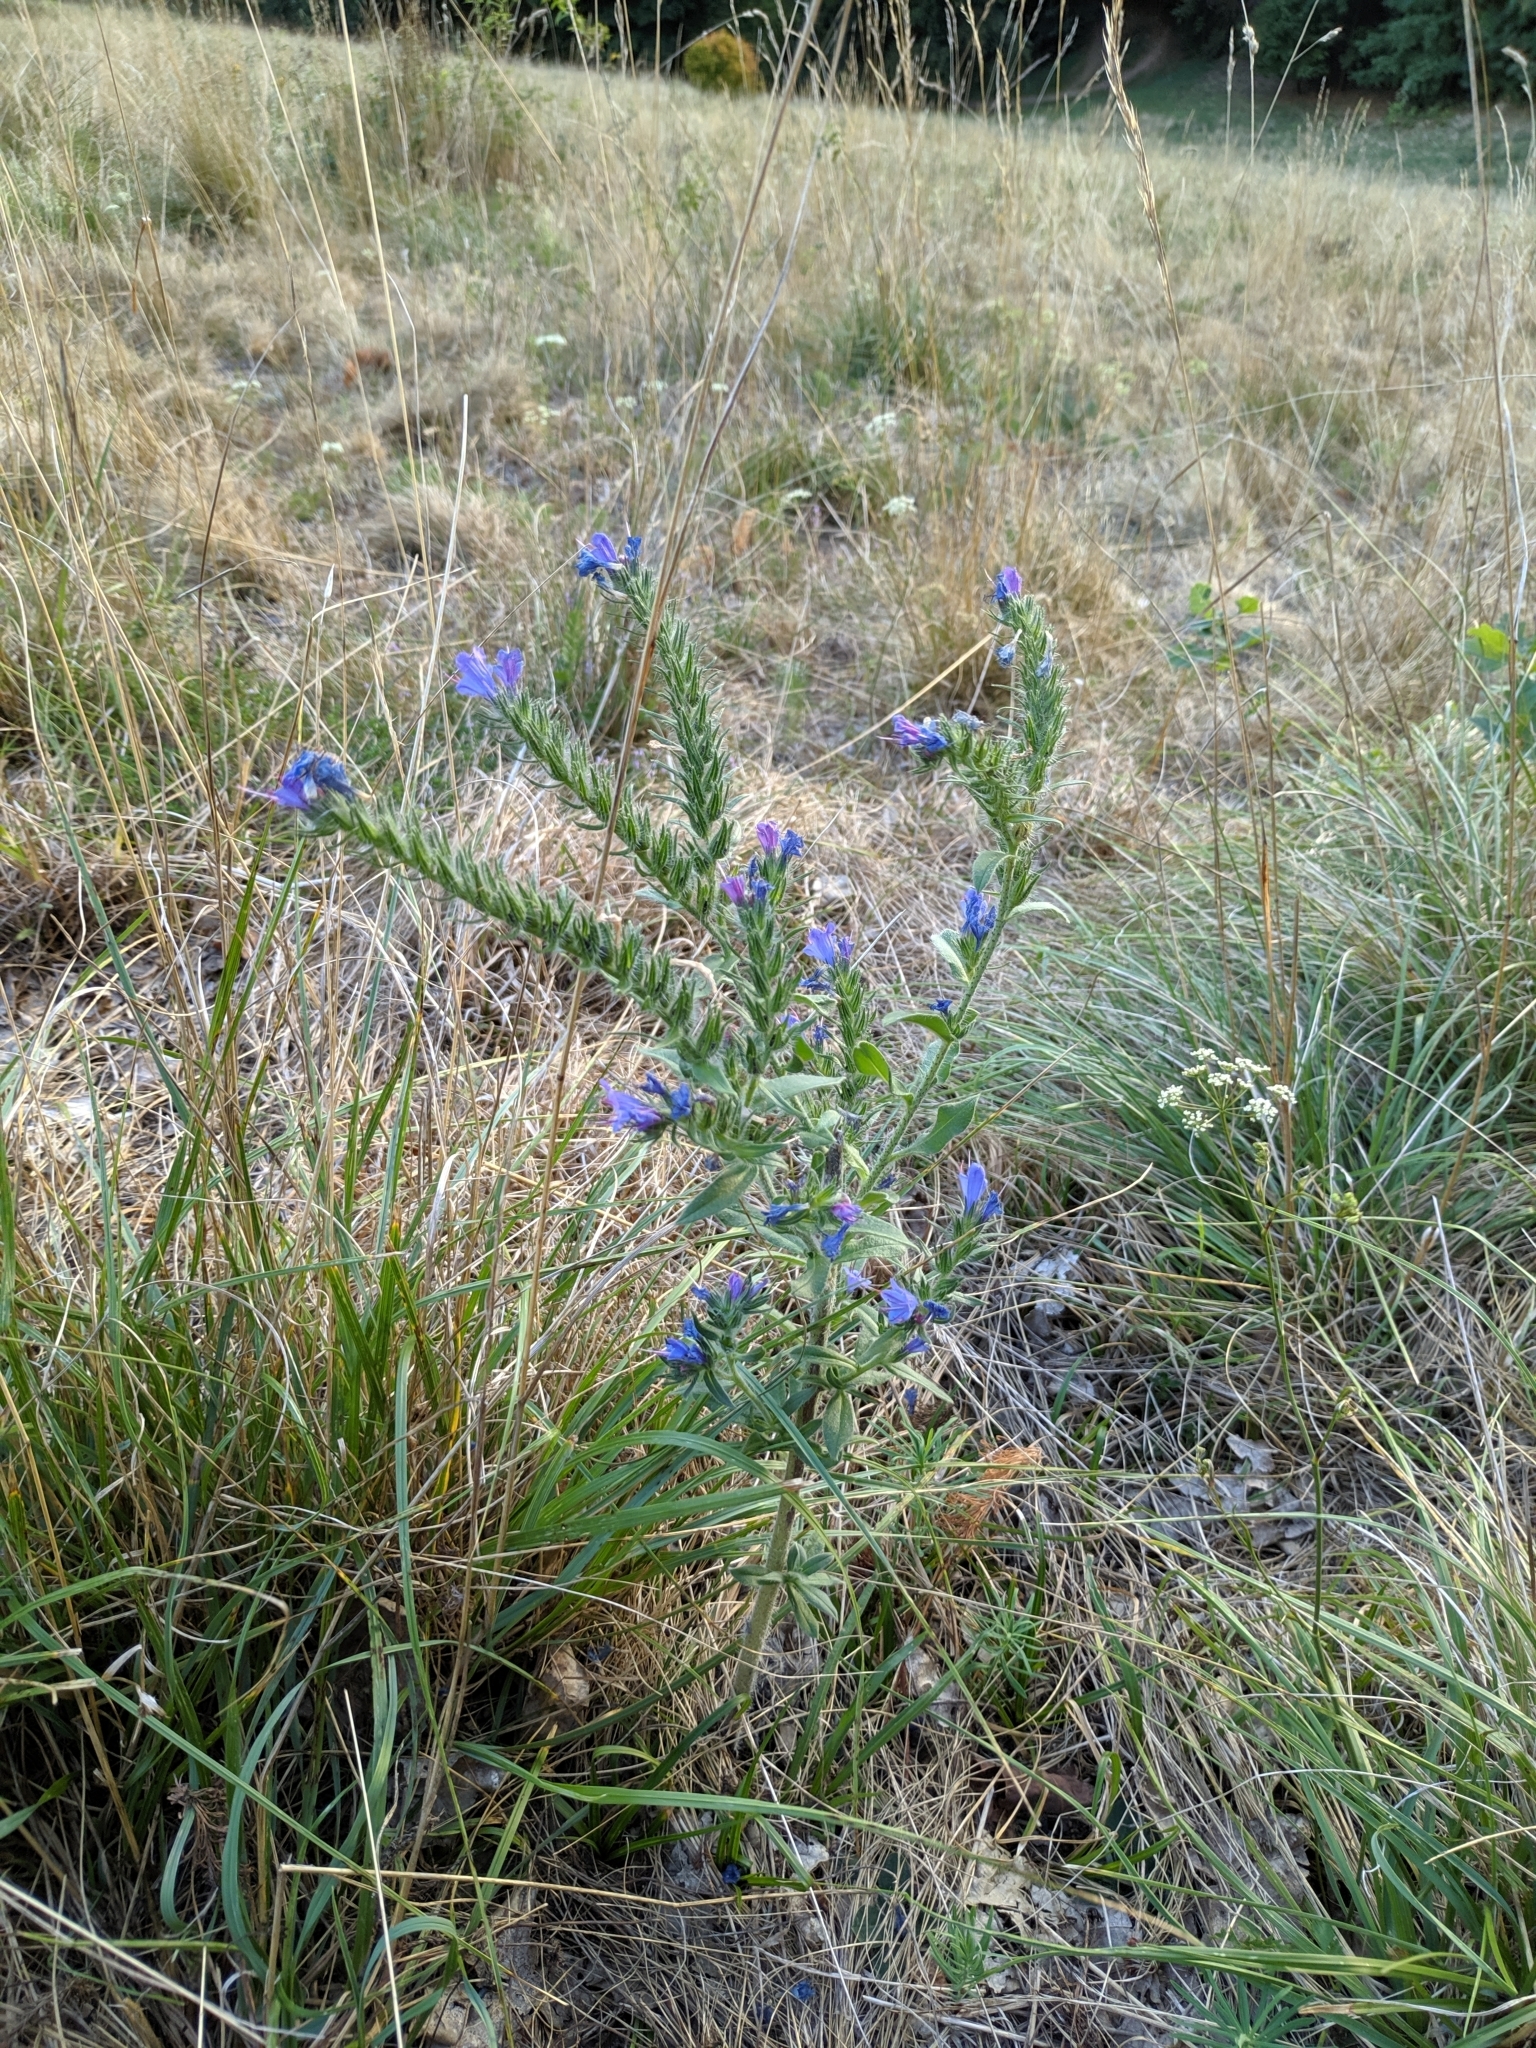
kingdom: Plantae
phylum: Tracheophyta
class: Magnoliopsida
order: Boraginales
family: Boraginaceae
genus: Echium
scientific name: Echium vulgare
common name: Common viper's bugloss
